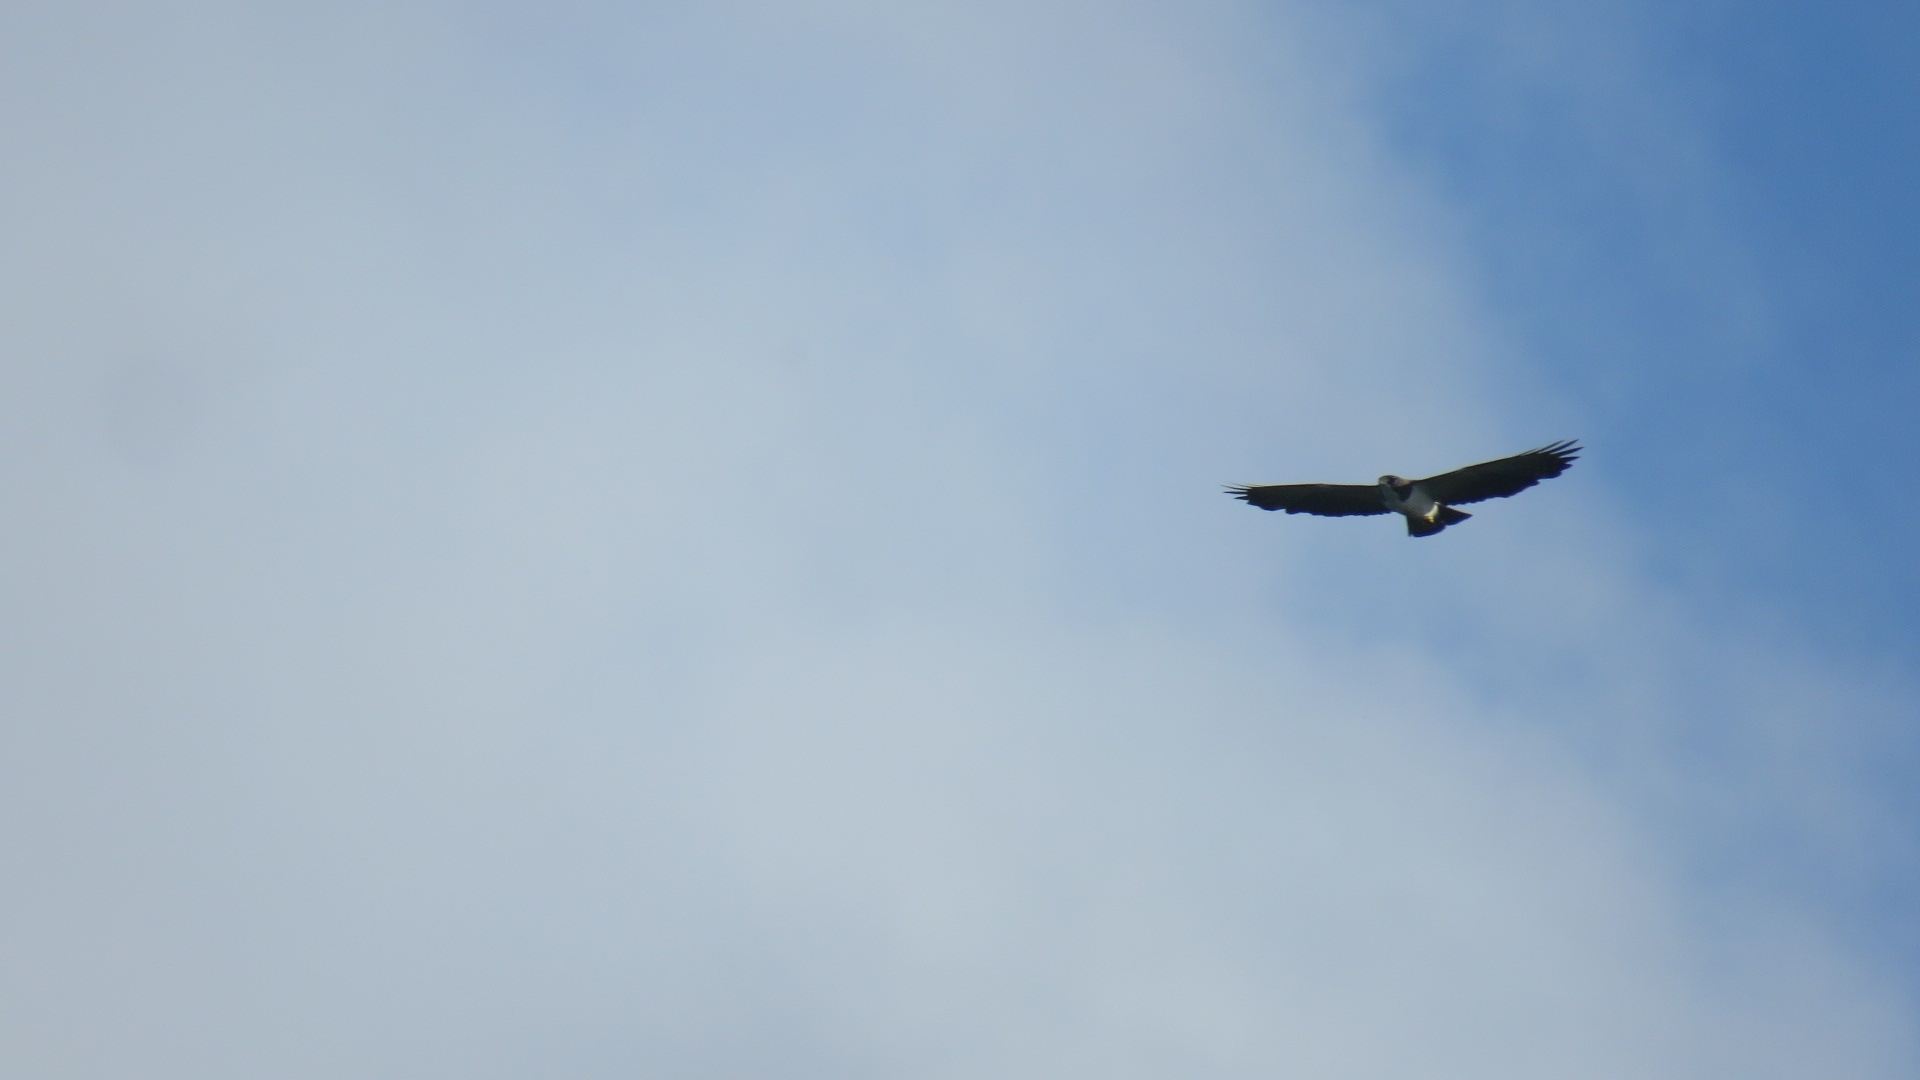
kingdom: Animalia
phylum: Chordata
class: Aves
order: Accipitriformes
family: Accipitridae
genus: Buteo
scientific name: Buteo brachyurus
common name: Short-tailed hawk
